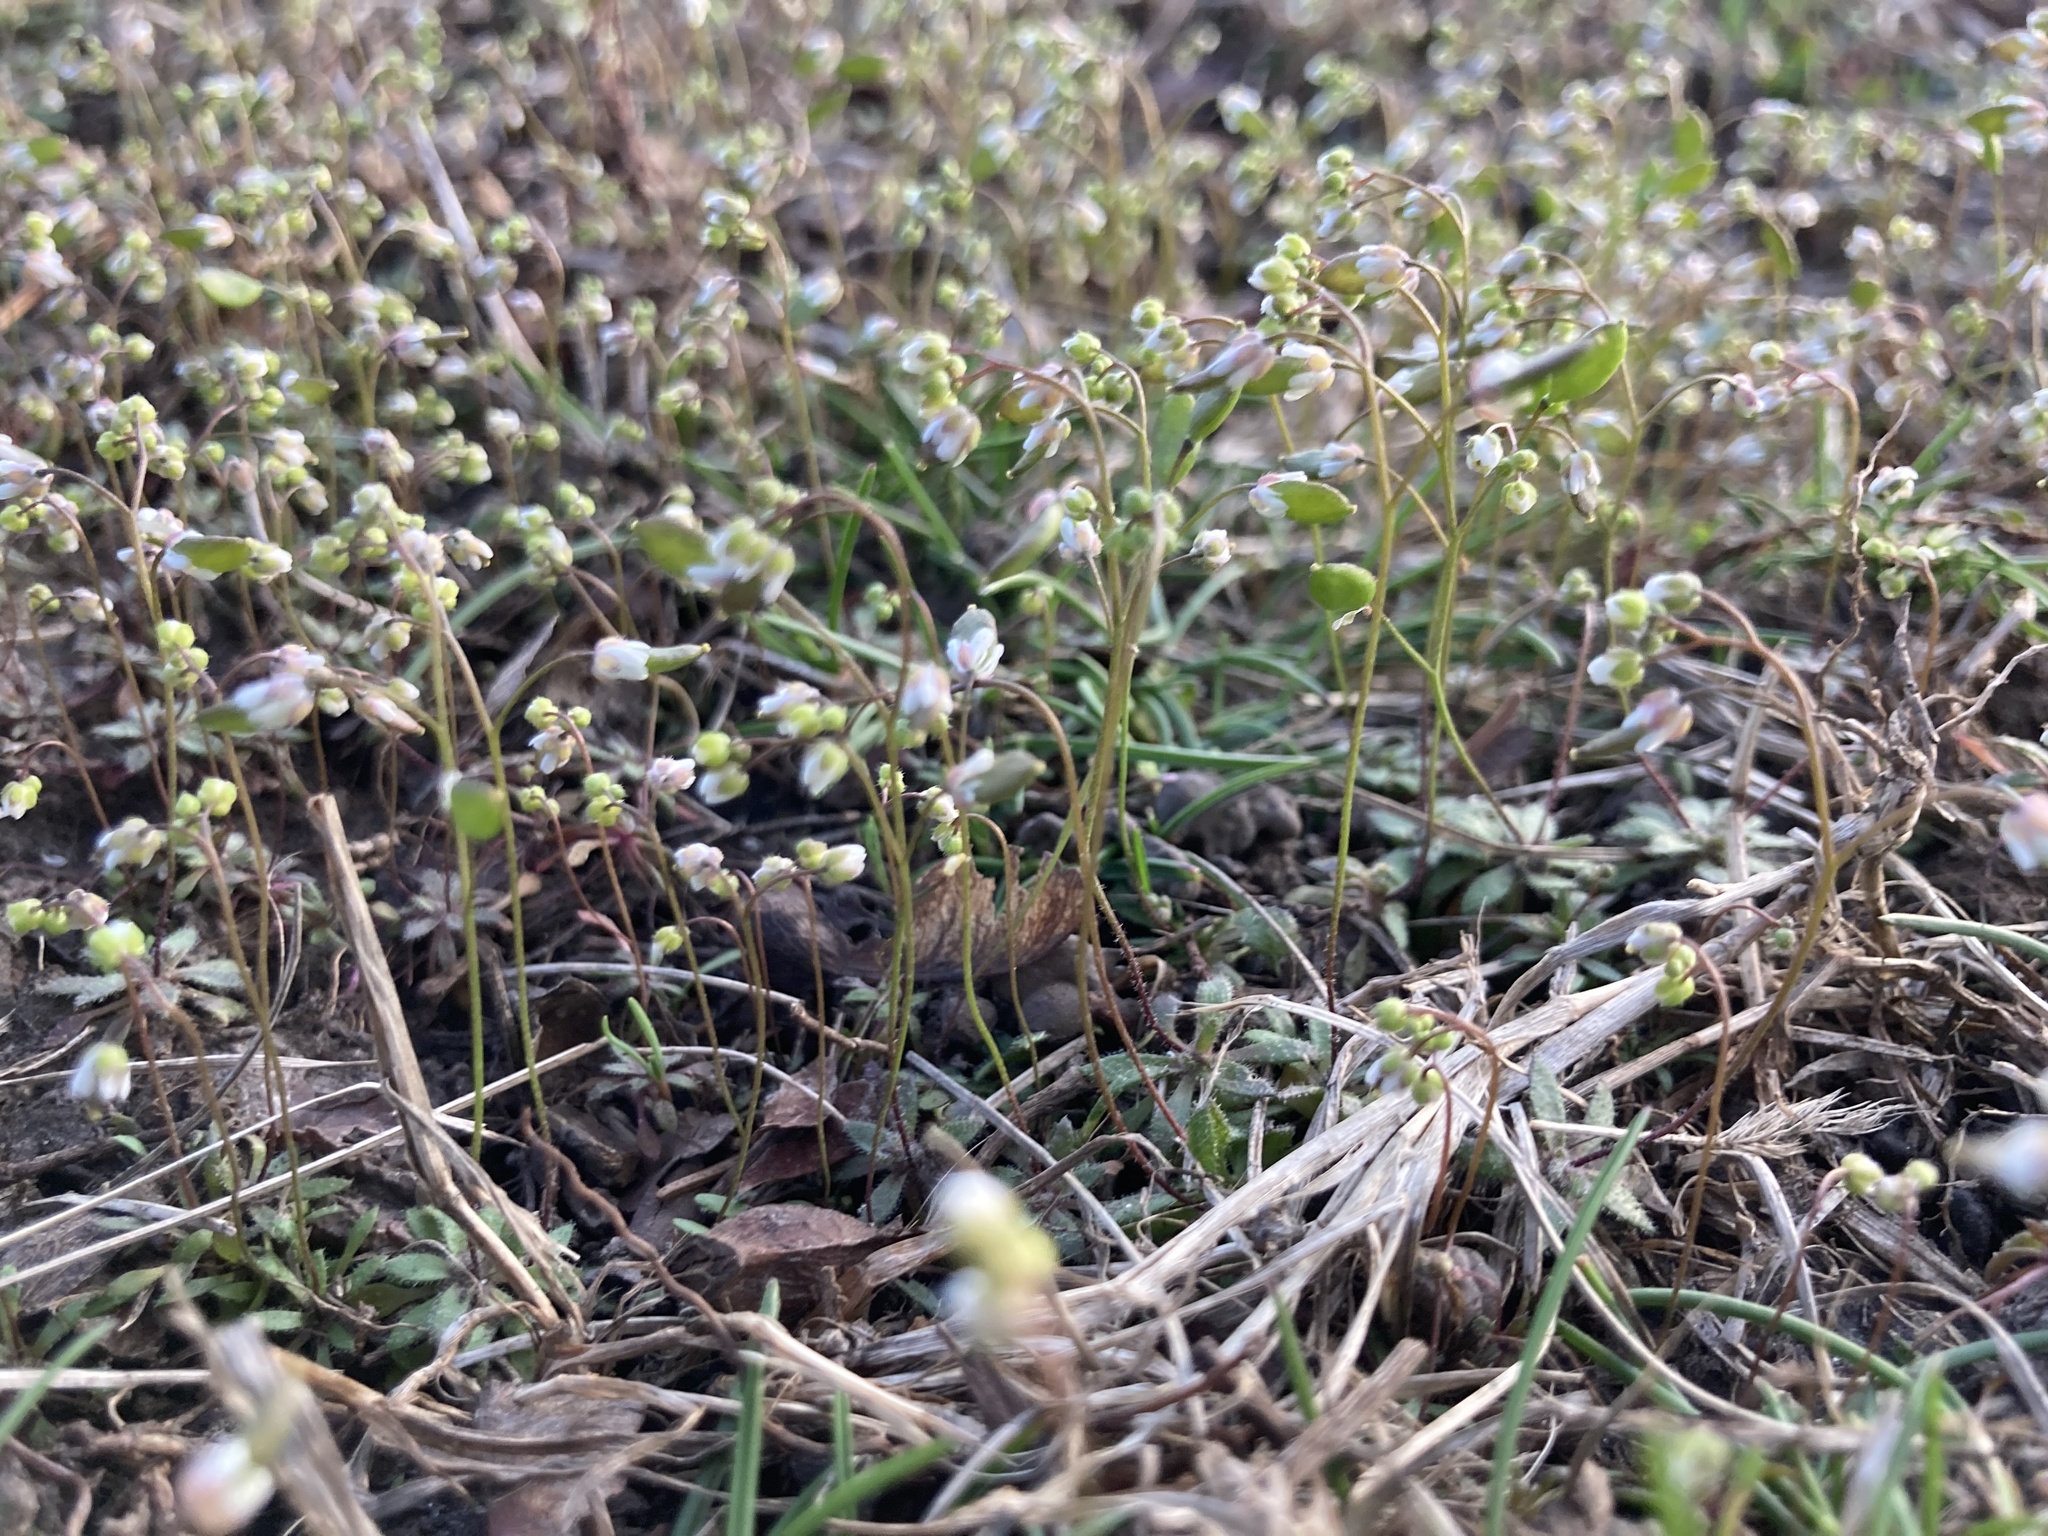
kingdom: Plantae
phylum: Tracheophyta
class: Magnoliopsida
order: Brassicales
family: Brassicaceae
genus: Draba
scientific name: Draba verna
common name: Spring draba
